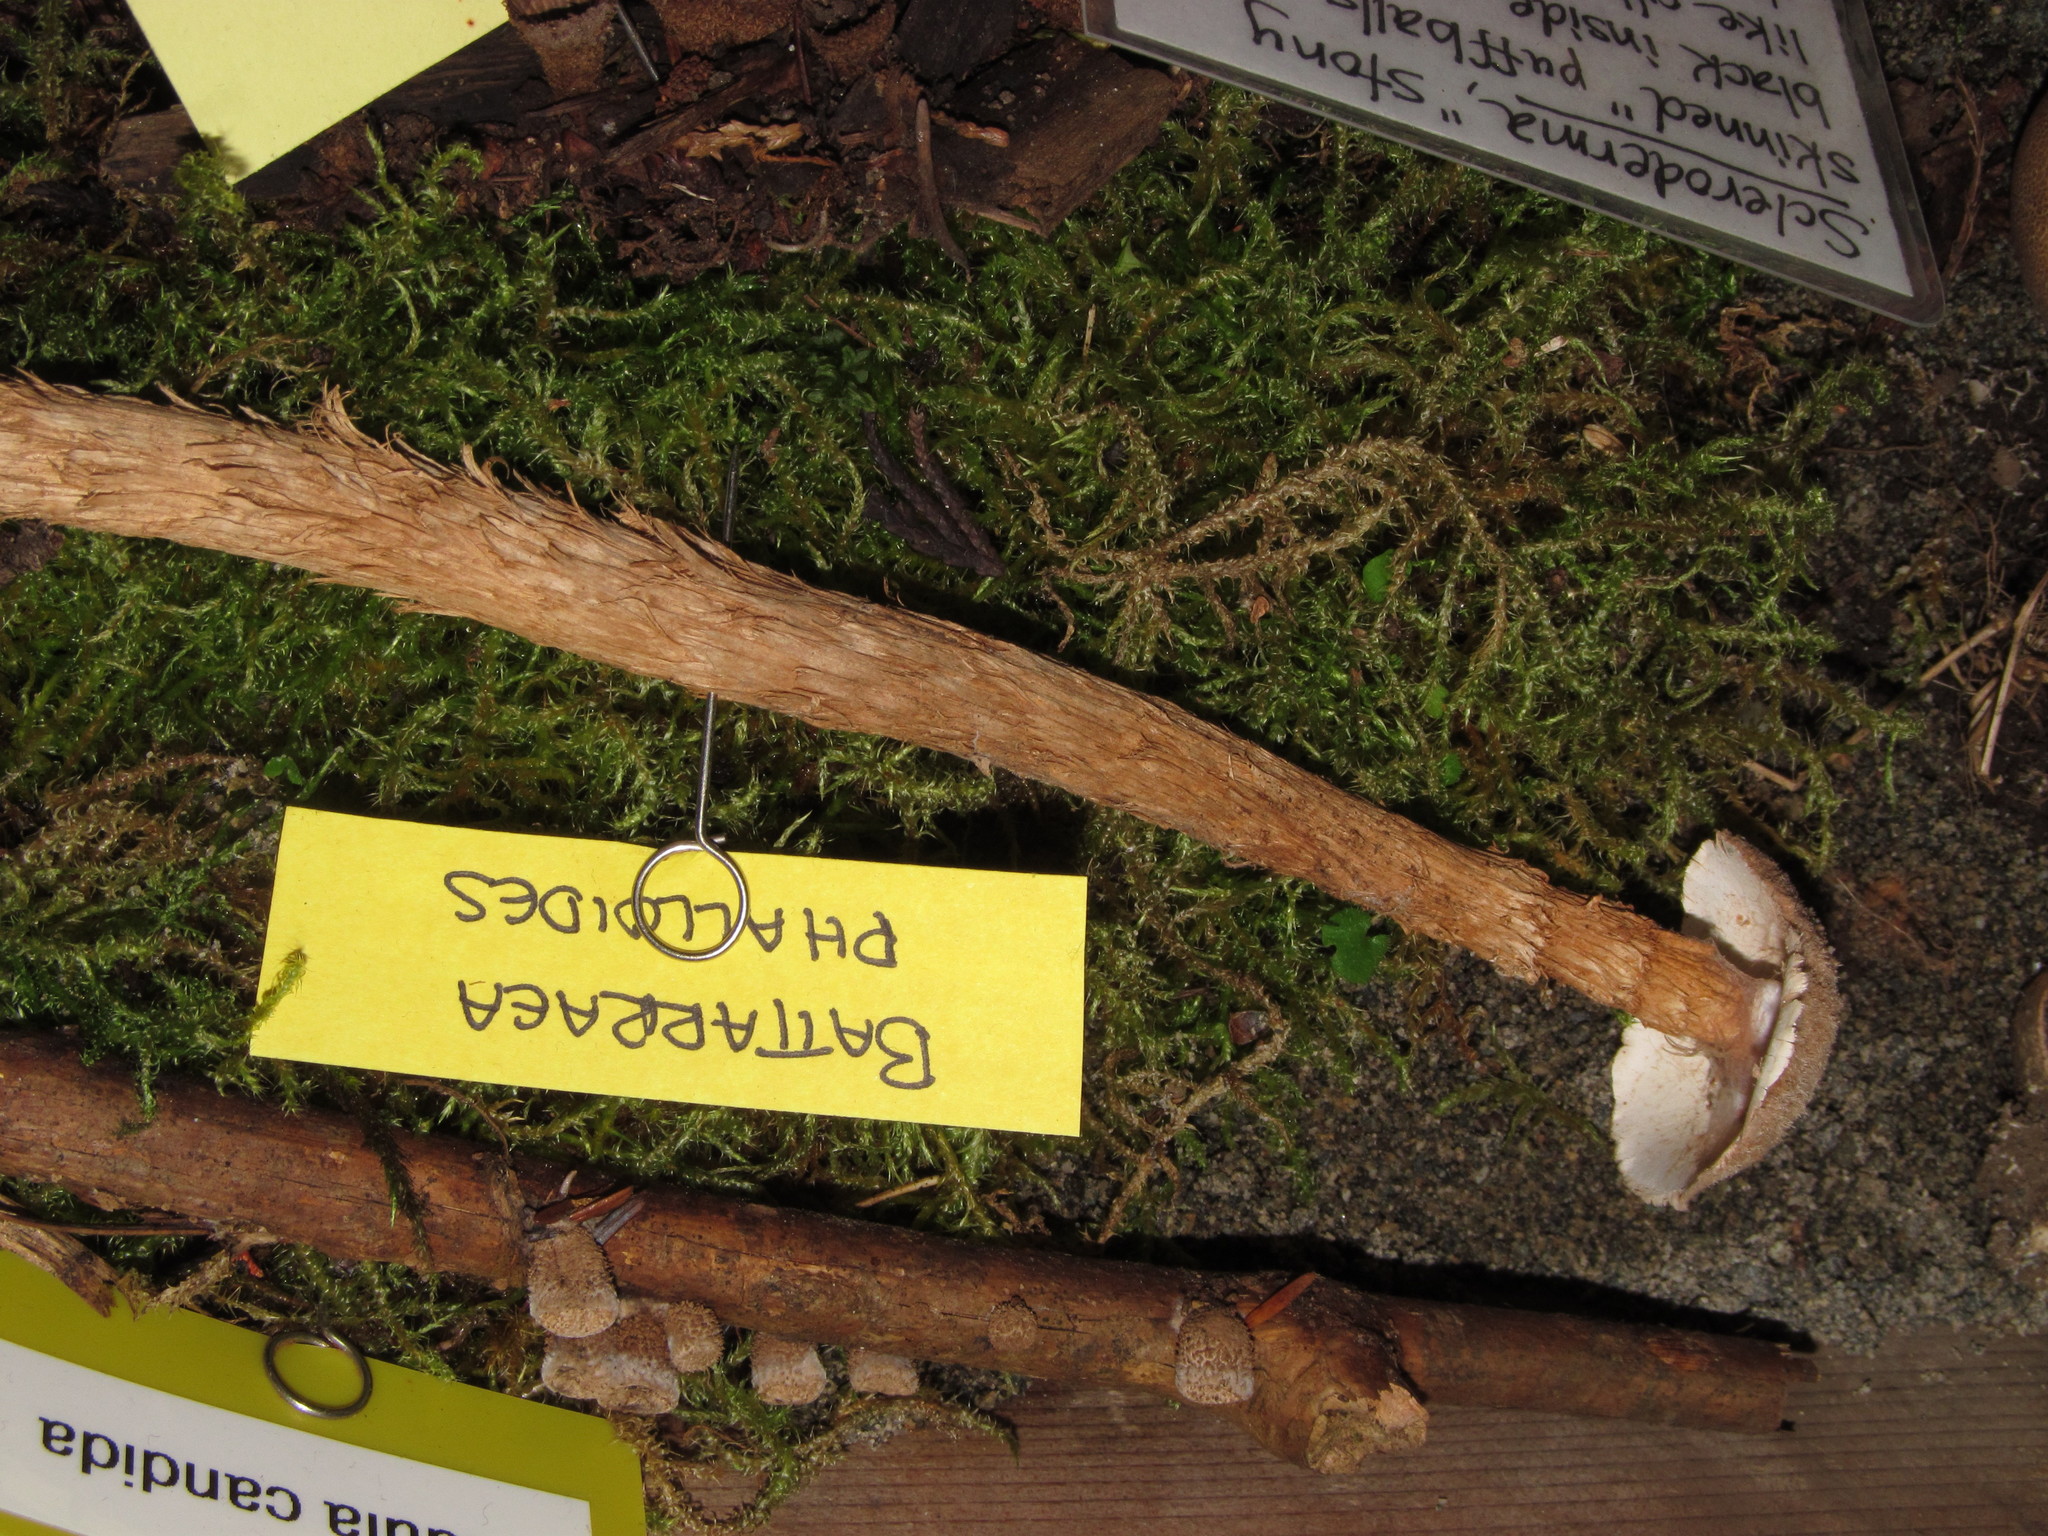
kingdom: Fungi
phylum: Basidiomycota
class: Agaricomycetes
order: Agaricales
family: Agaricaceae
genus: Battarrea
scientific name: Battarrea phalloides
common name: Sandy stiltball
